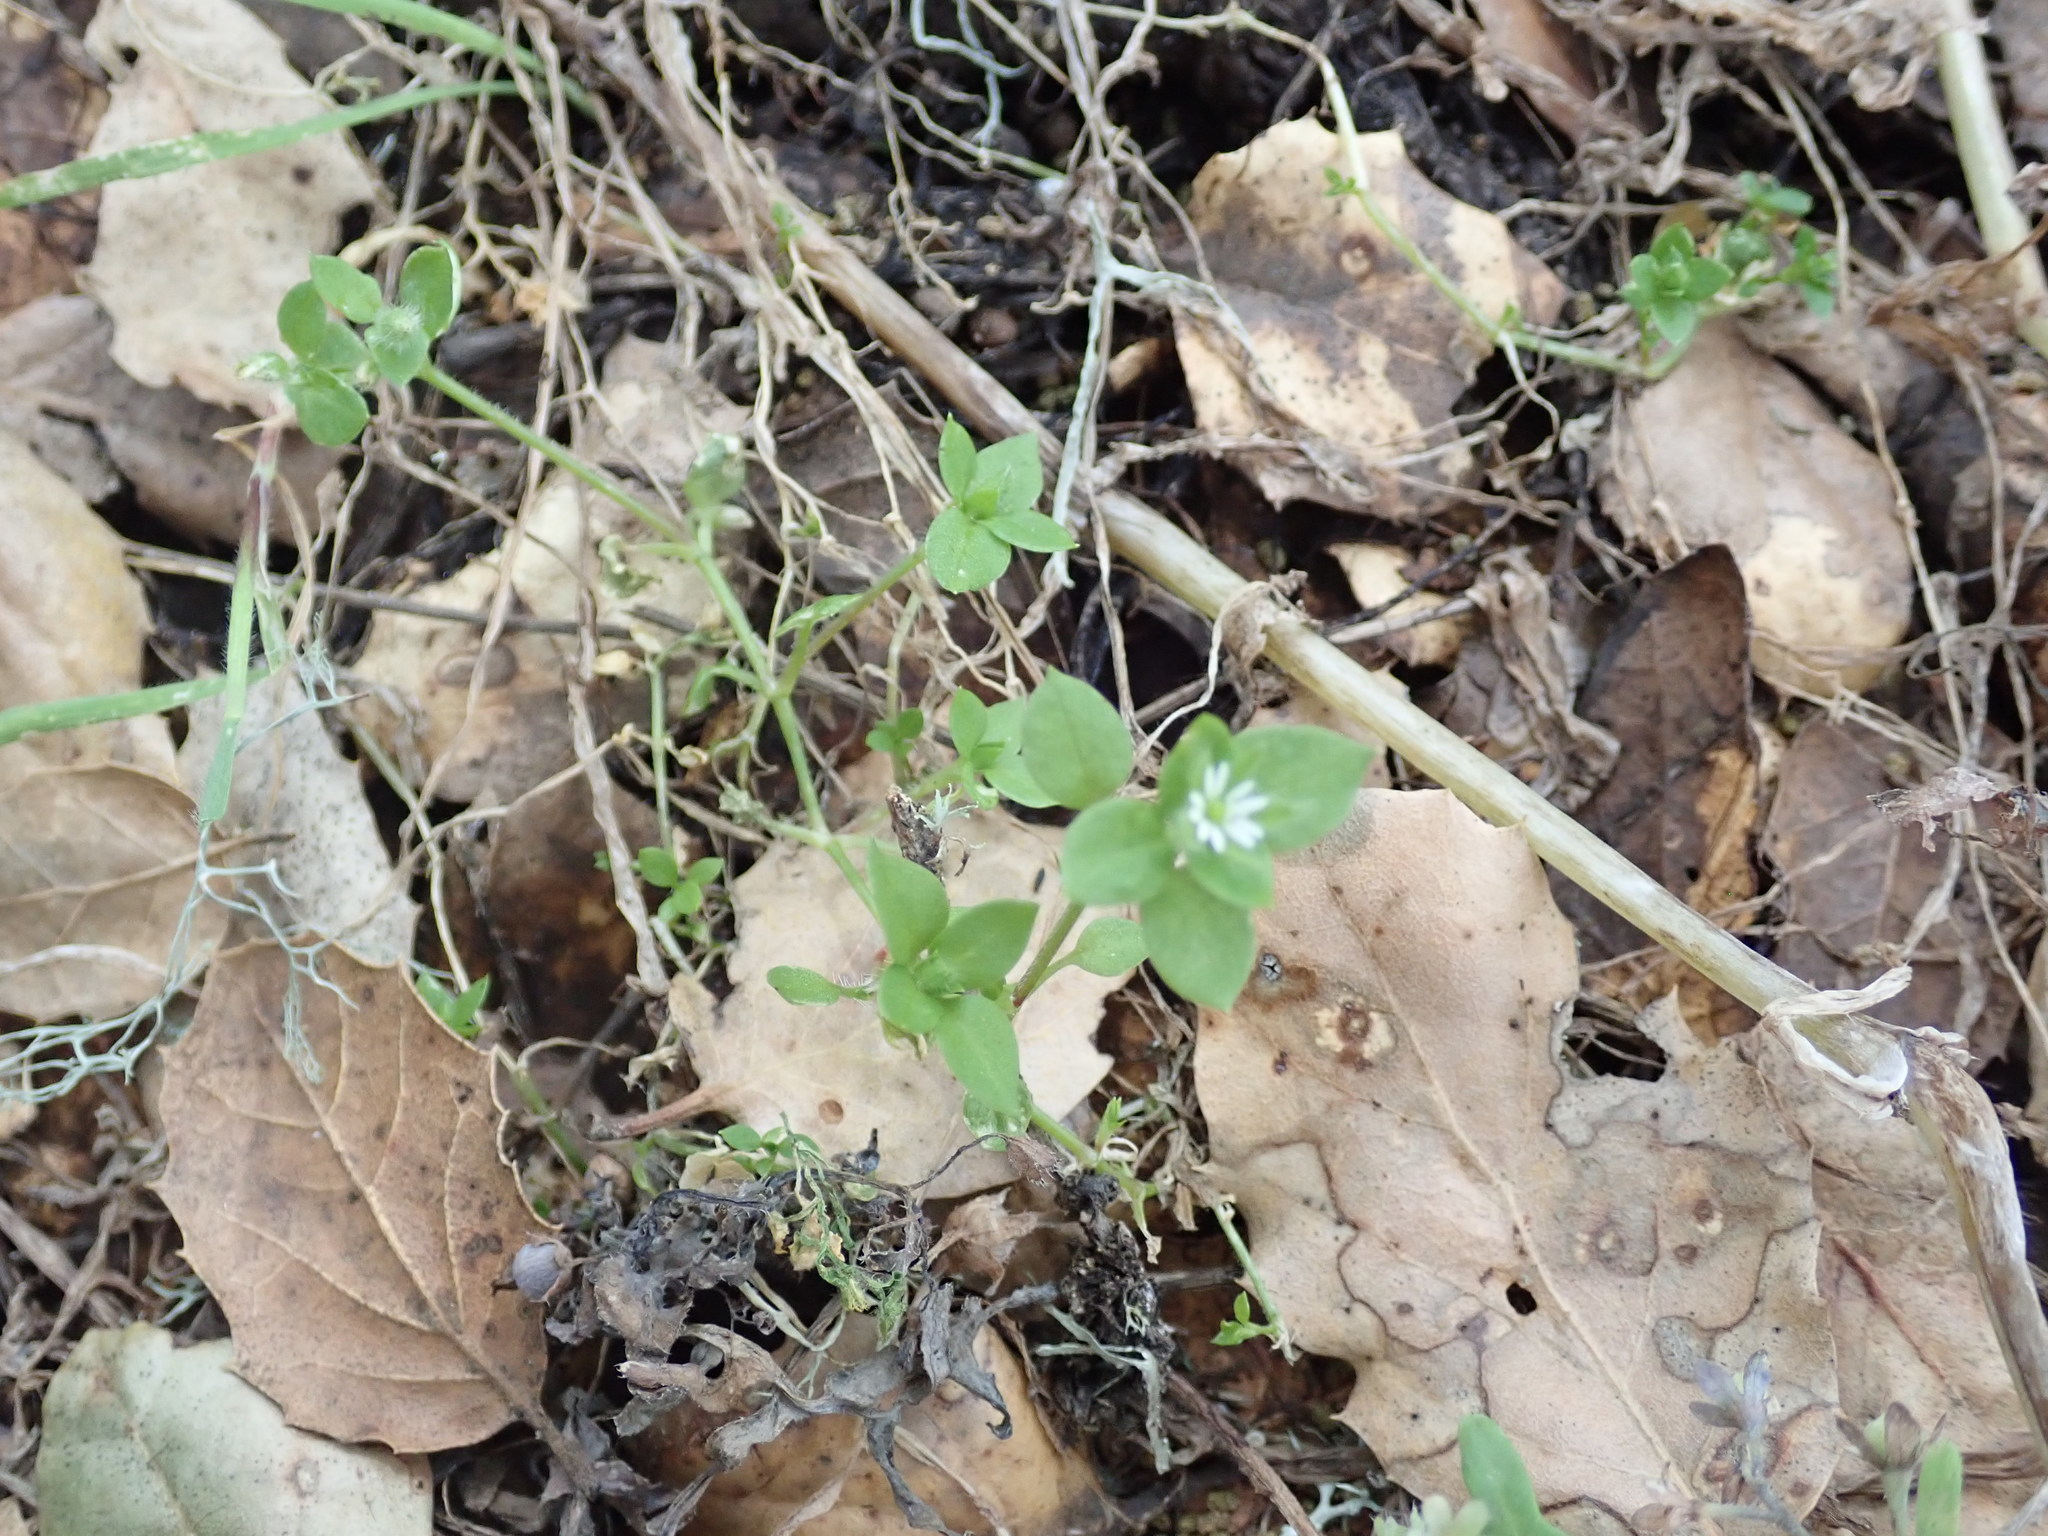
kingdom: Plantae
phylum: Tracheophyta
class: Magnoliopsida
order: Caryophyllales
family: Caryophyllaceae
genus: Stellaria
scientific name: Stellaria media
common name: Common chickweed
